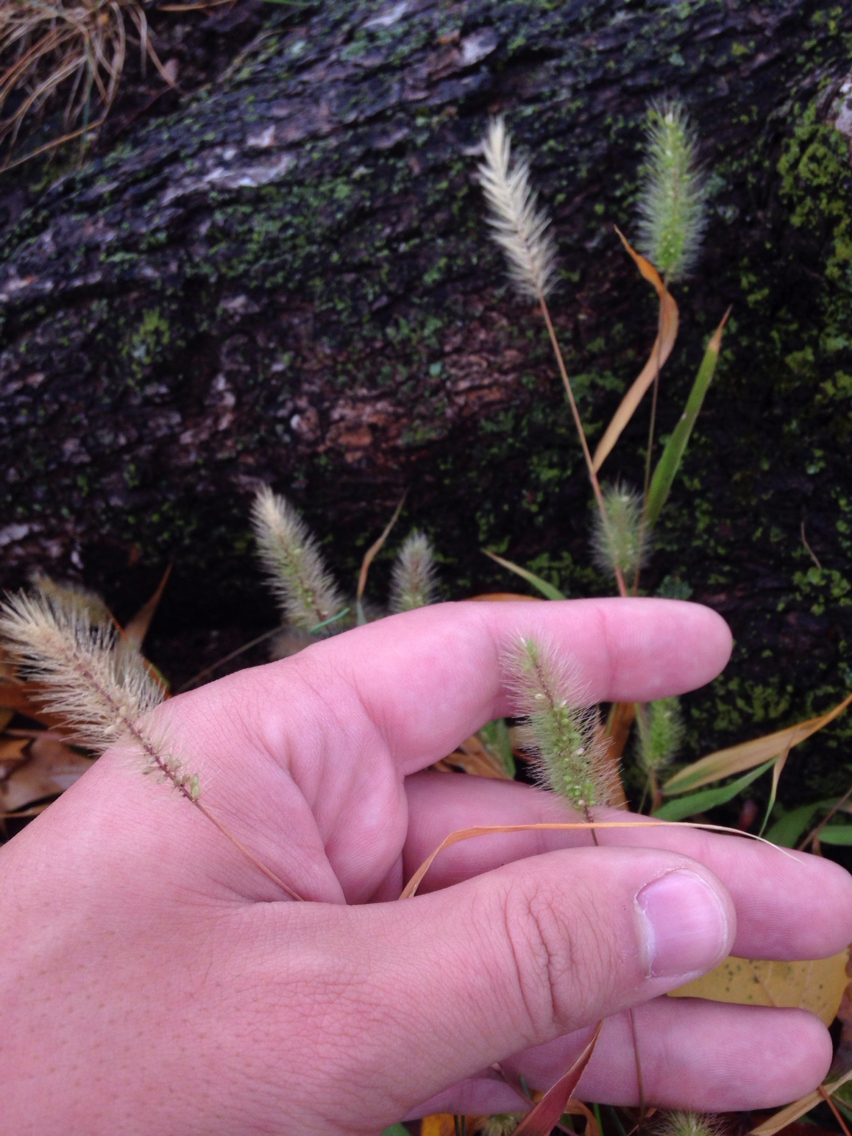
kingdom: Plantae
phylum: Tracheophyta
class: Liliopsida
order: Poales
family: Poaceae
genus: Setaria
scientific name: Setaria
